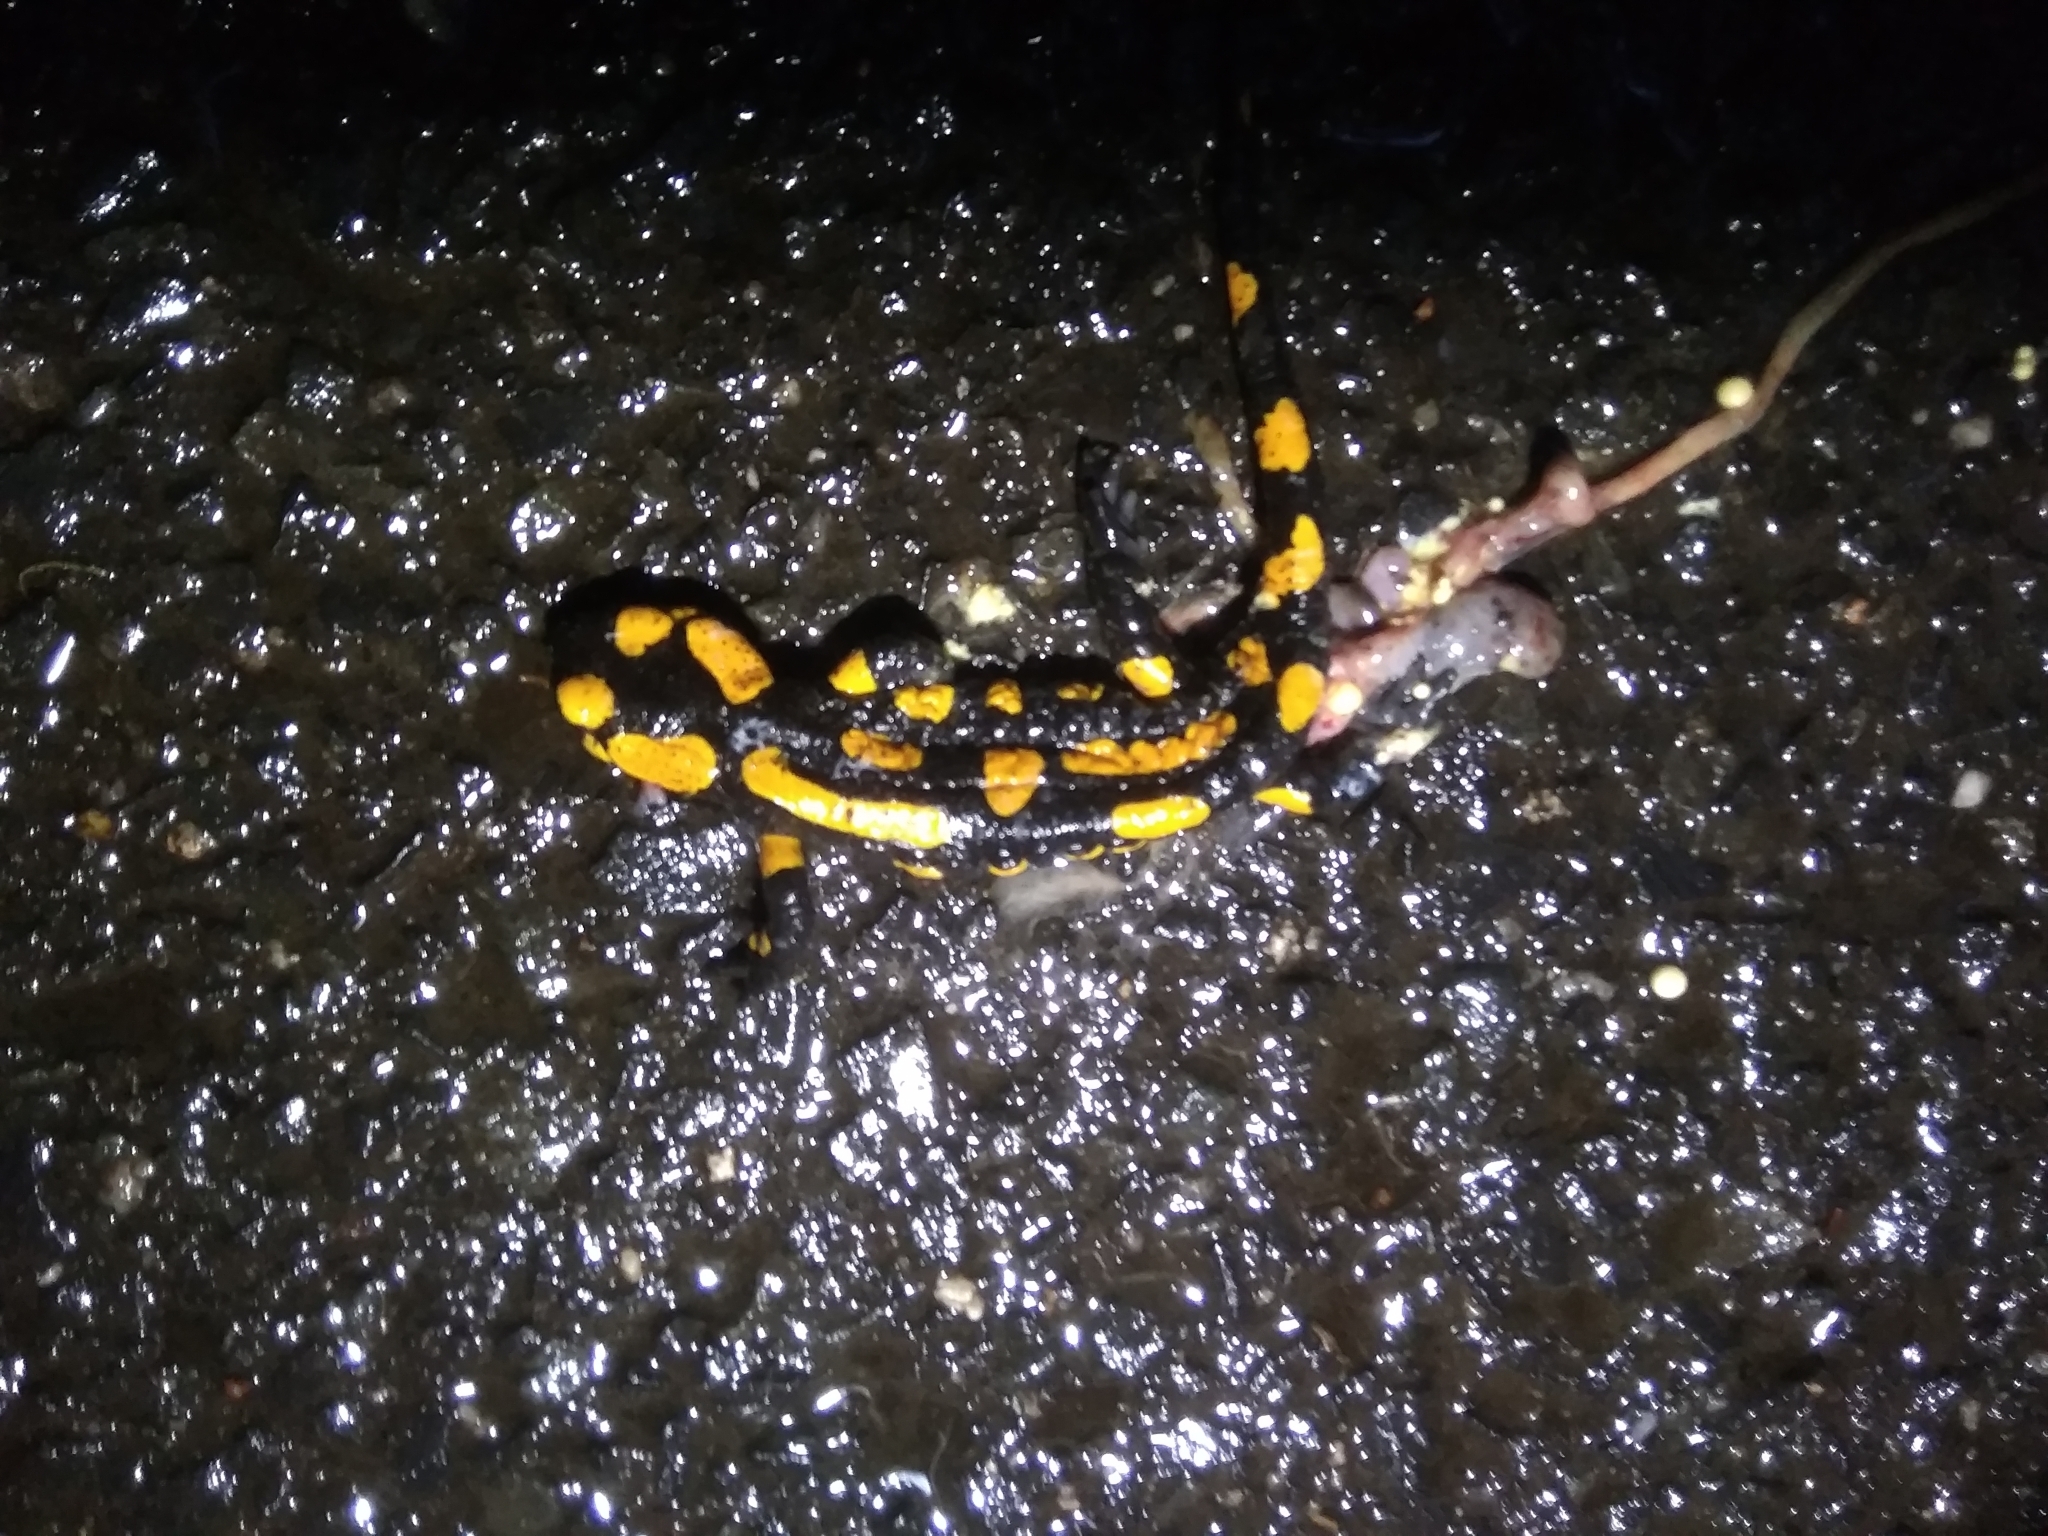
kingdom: Animalia
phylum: Chordata
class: Amphibia
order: Caudata
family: Salamandridae
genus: Salamandra
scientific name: Salamandra salamandra
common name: Fire salamander
